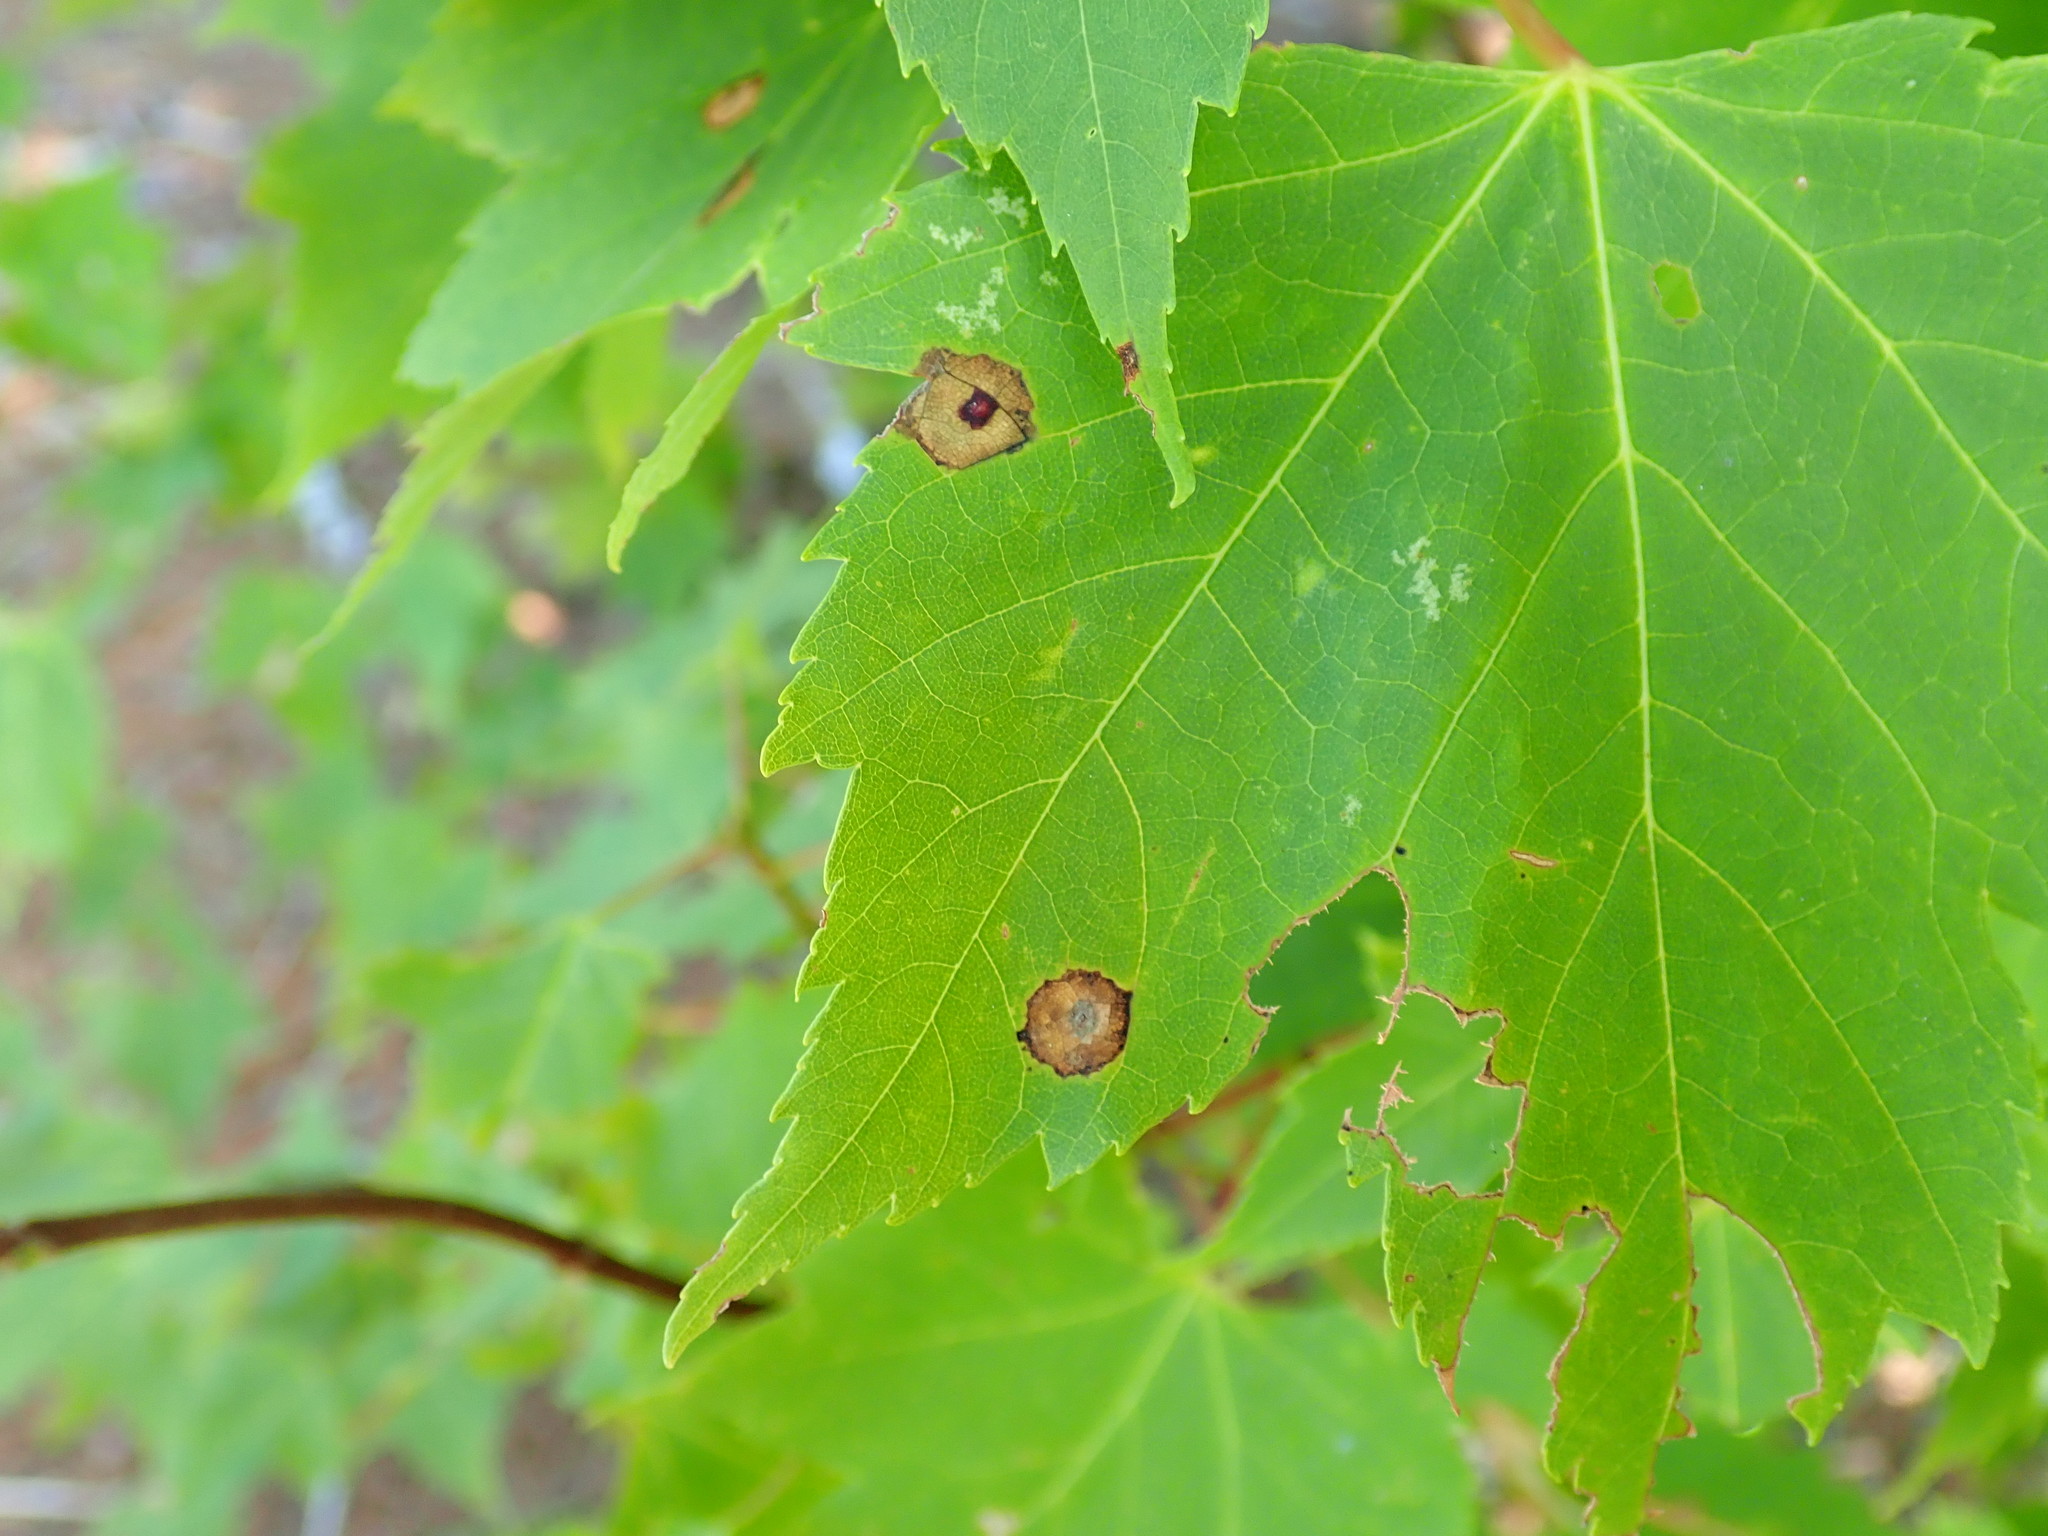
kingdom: Animalia
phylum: Arthropoda
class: Insecta
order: Diptera
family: Cecidomyiidae
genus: Acericecis
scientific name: Acericecis ocellaris
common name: Ocellate gall midge
